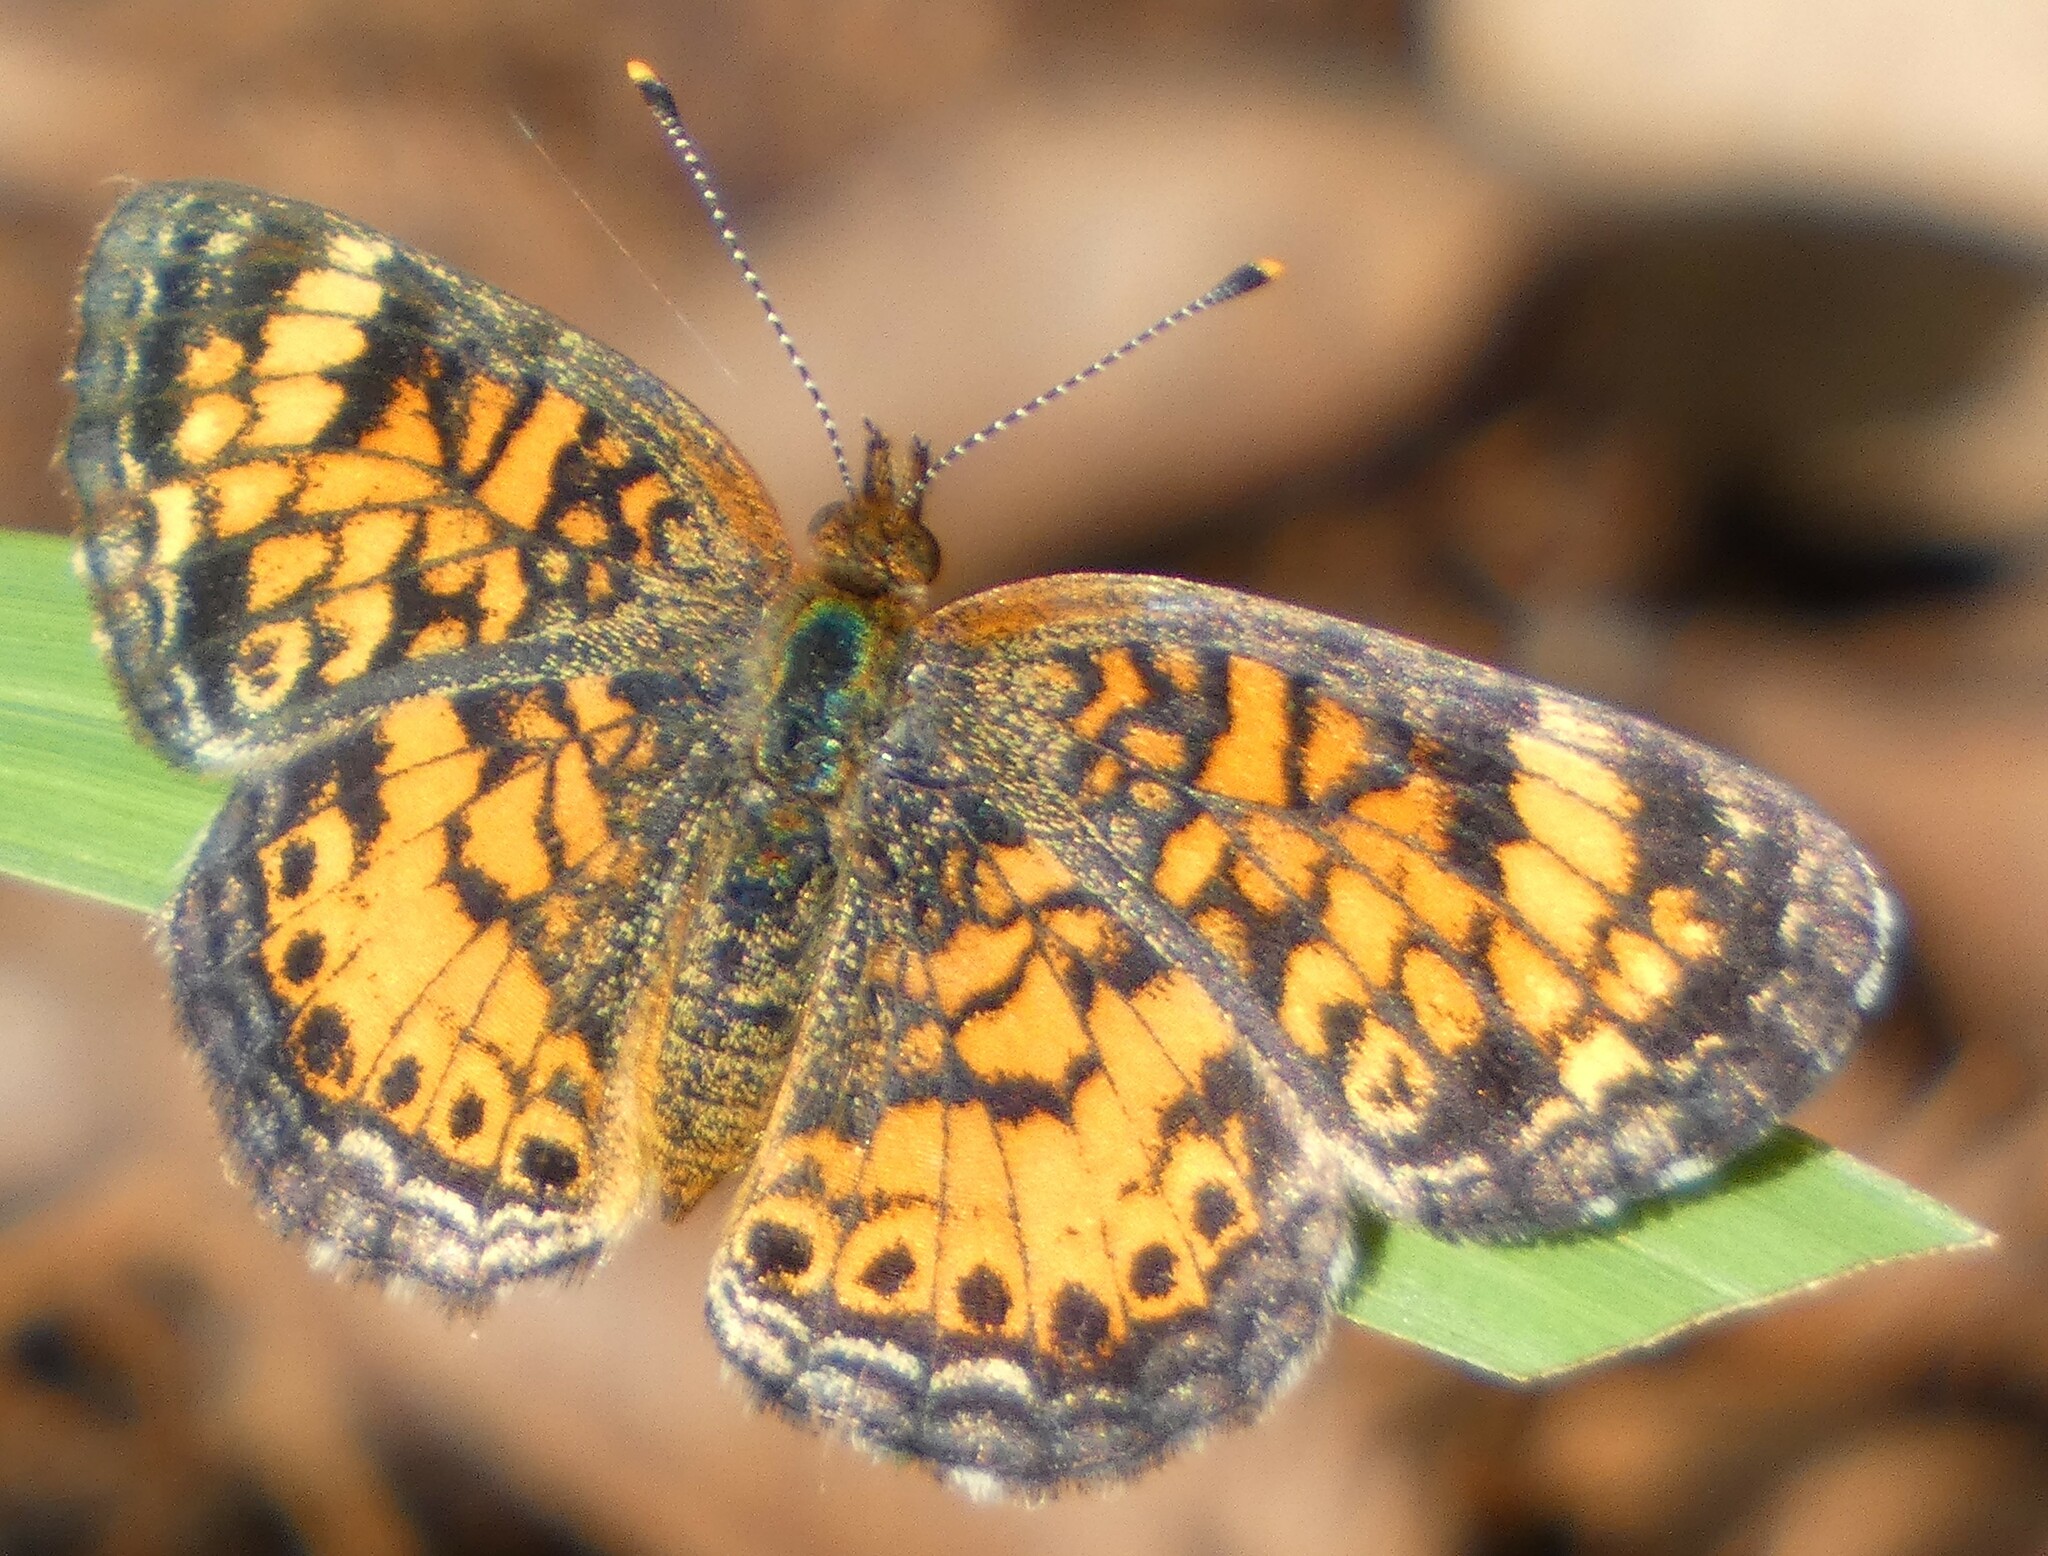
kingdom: Animalia
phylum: Arthropoda
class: Insecta
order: Lepidoptera
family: Nymphalidae
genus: Phyciodes
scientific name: Phyciodes tharos
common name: Pearl crescent
